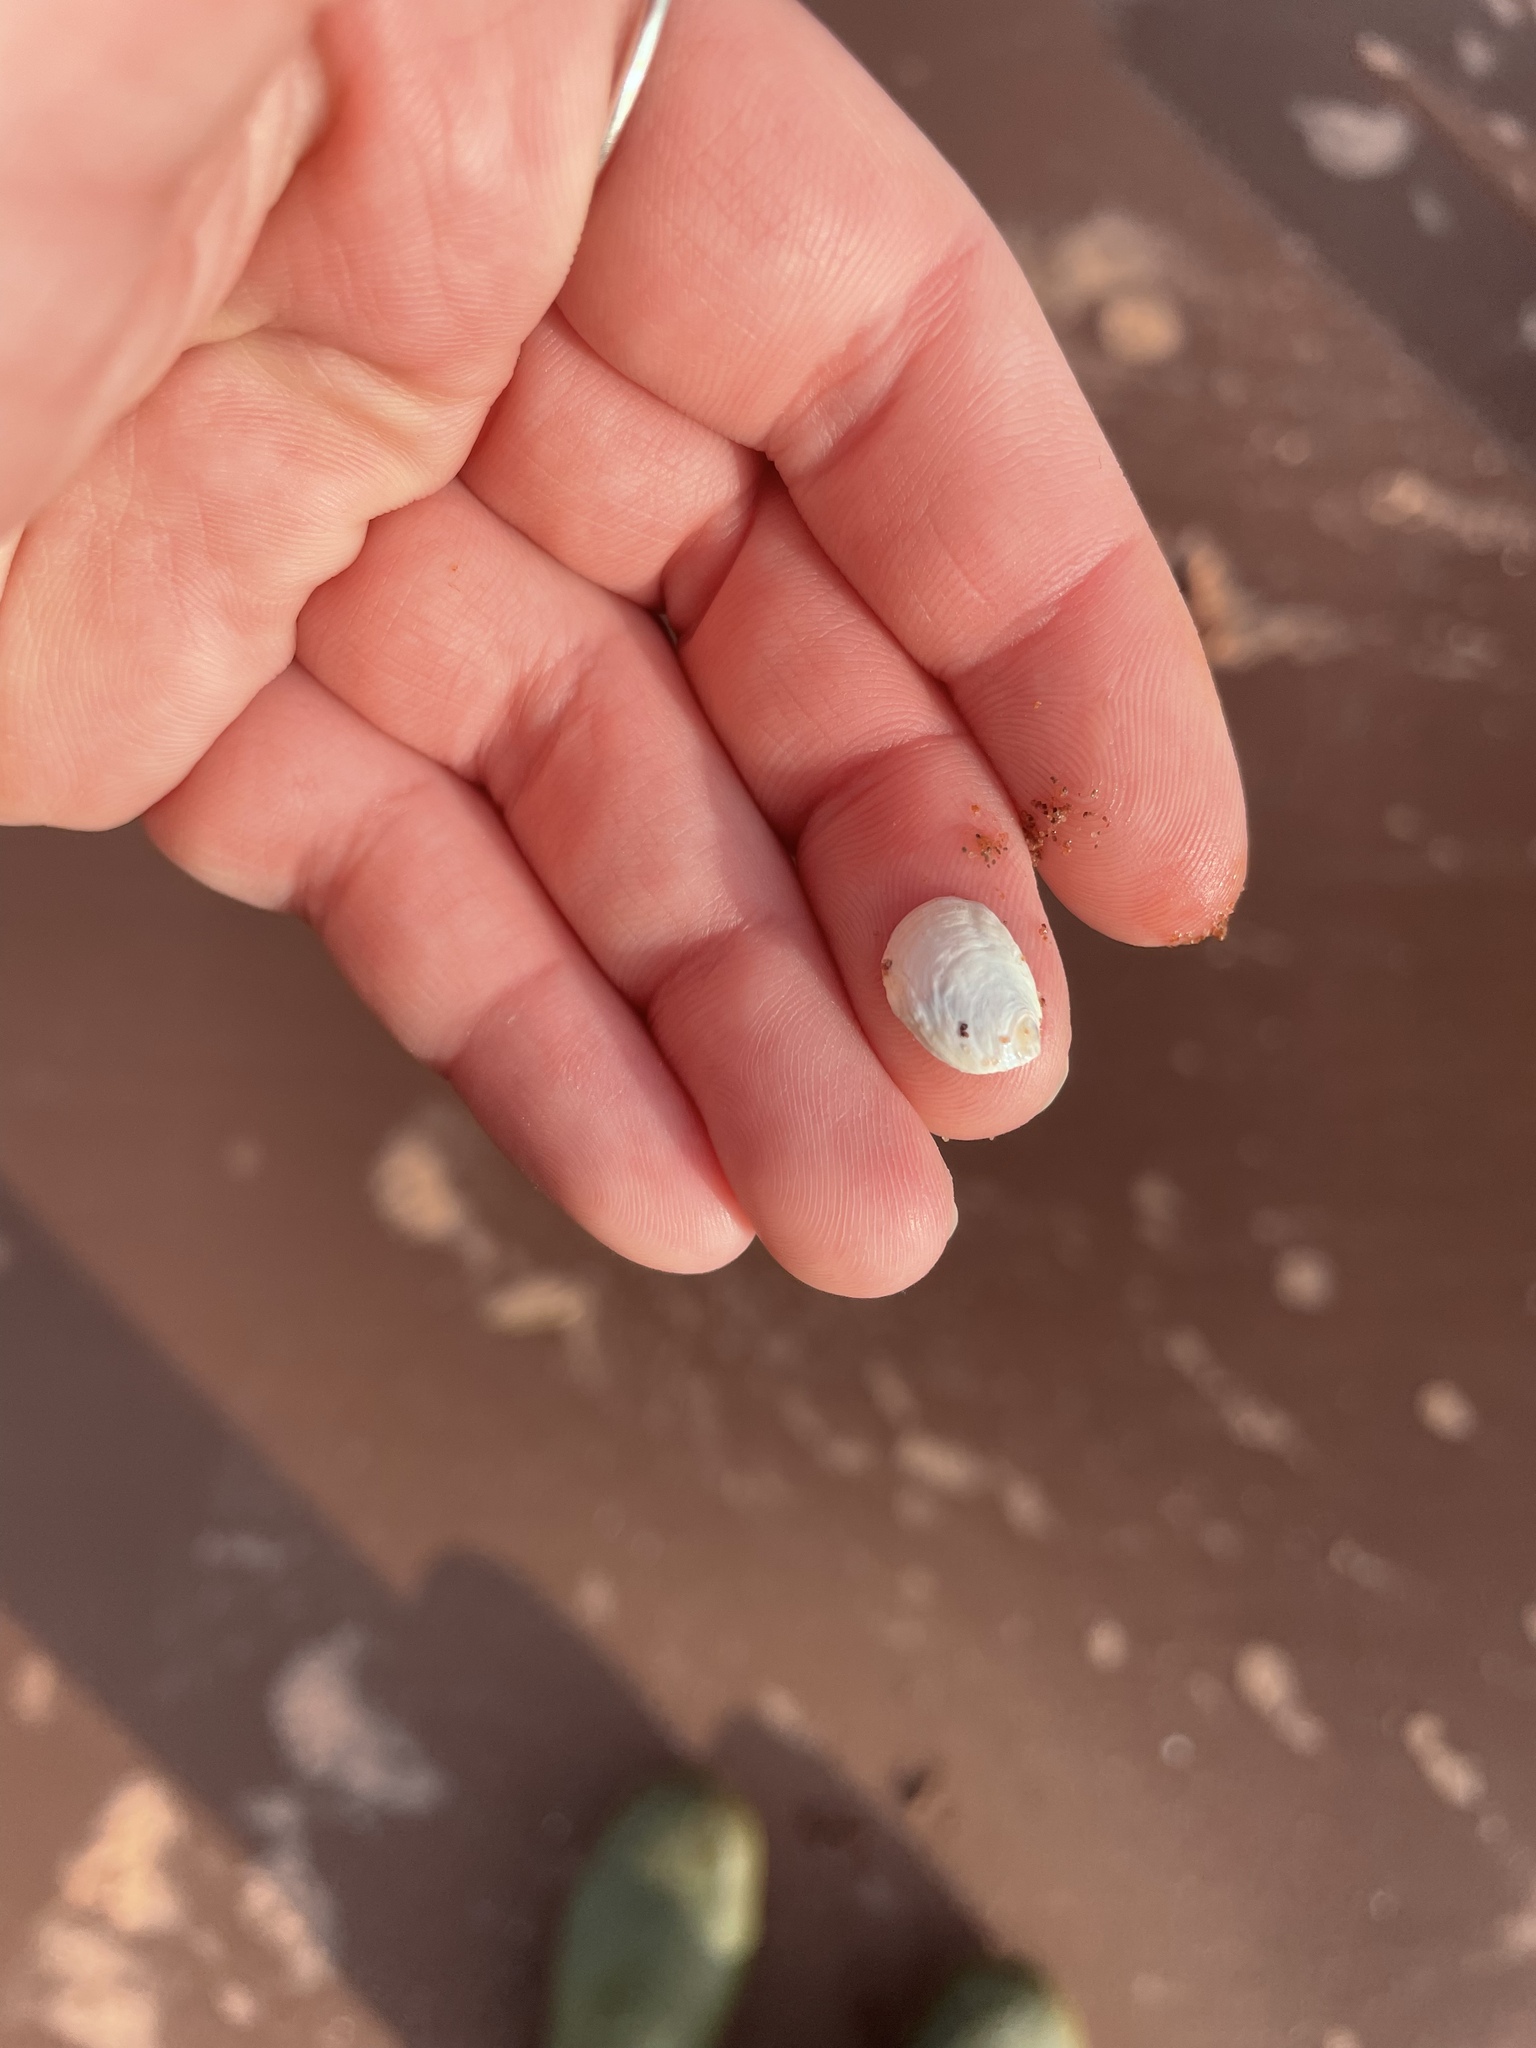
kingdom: Animalia
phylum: Mollusca
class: Gastropoda
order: Littorinimorpha
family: Calyptraeidae
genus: Crepidula
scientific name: Crepidula plana
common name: Eastern white slippersnail
